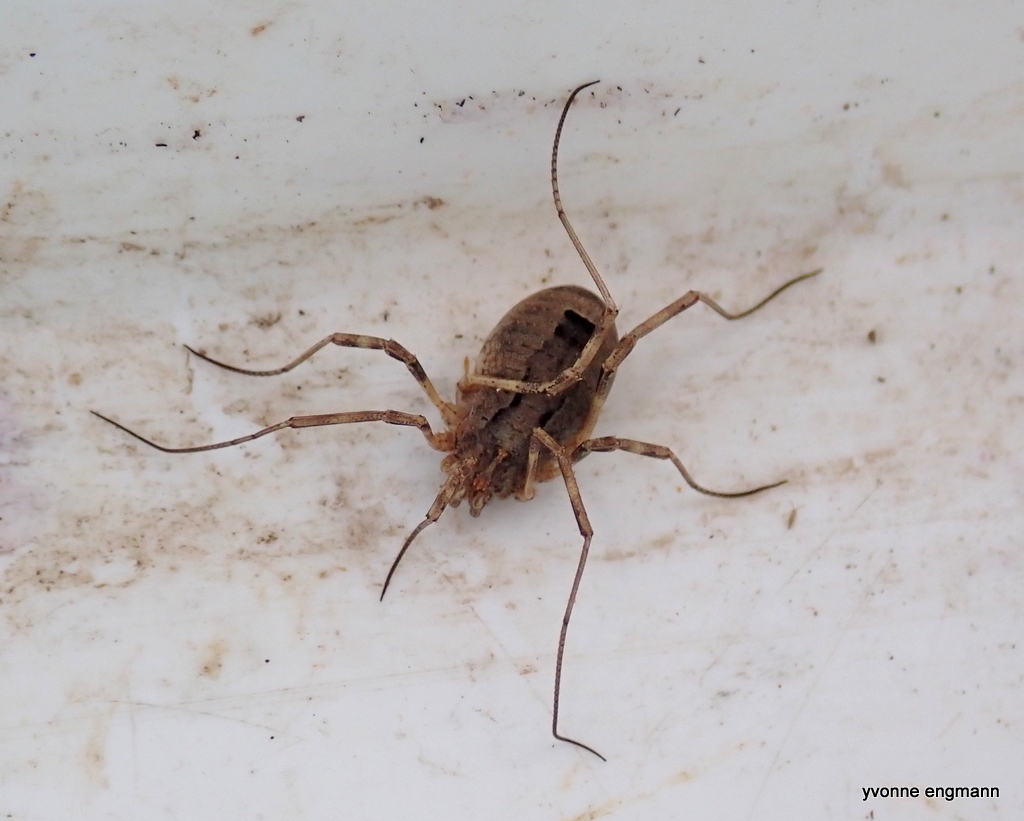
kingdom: Animalia
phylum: Arthropoda
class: Arachnida
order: Opiliones
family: Phalangiidae
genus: Odiellus
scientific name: Odiellus spinosus
